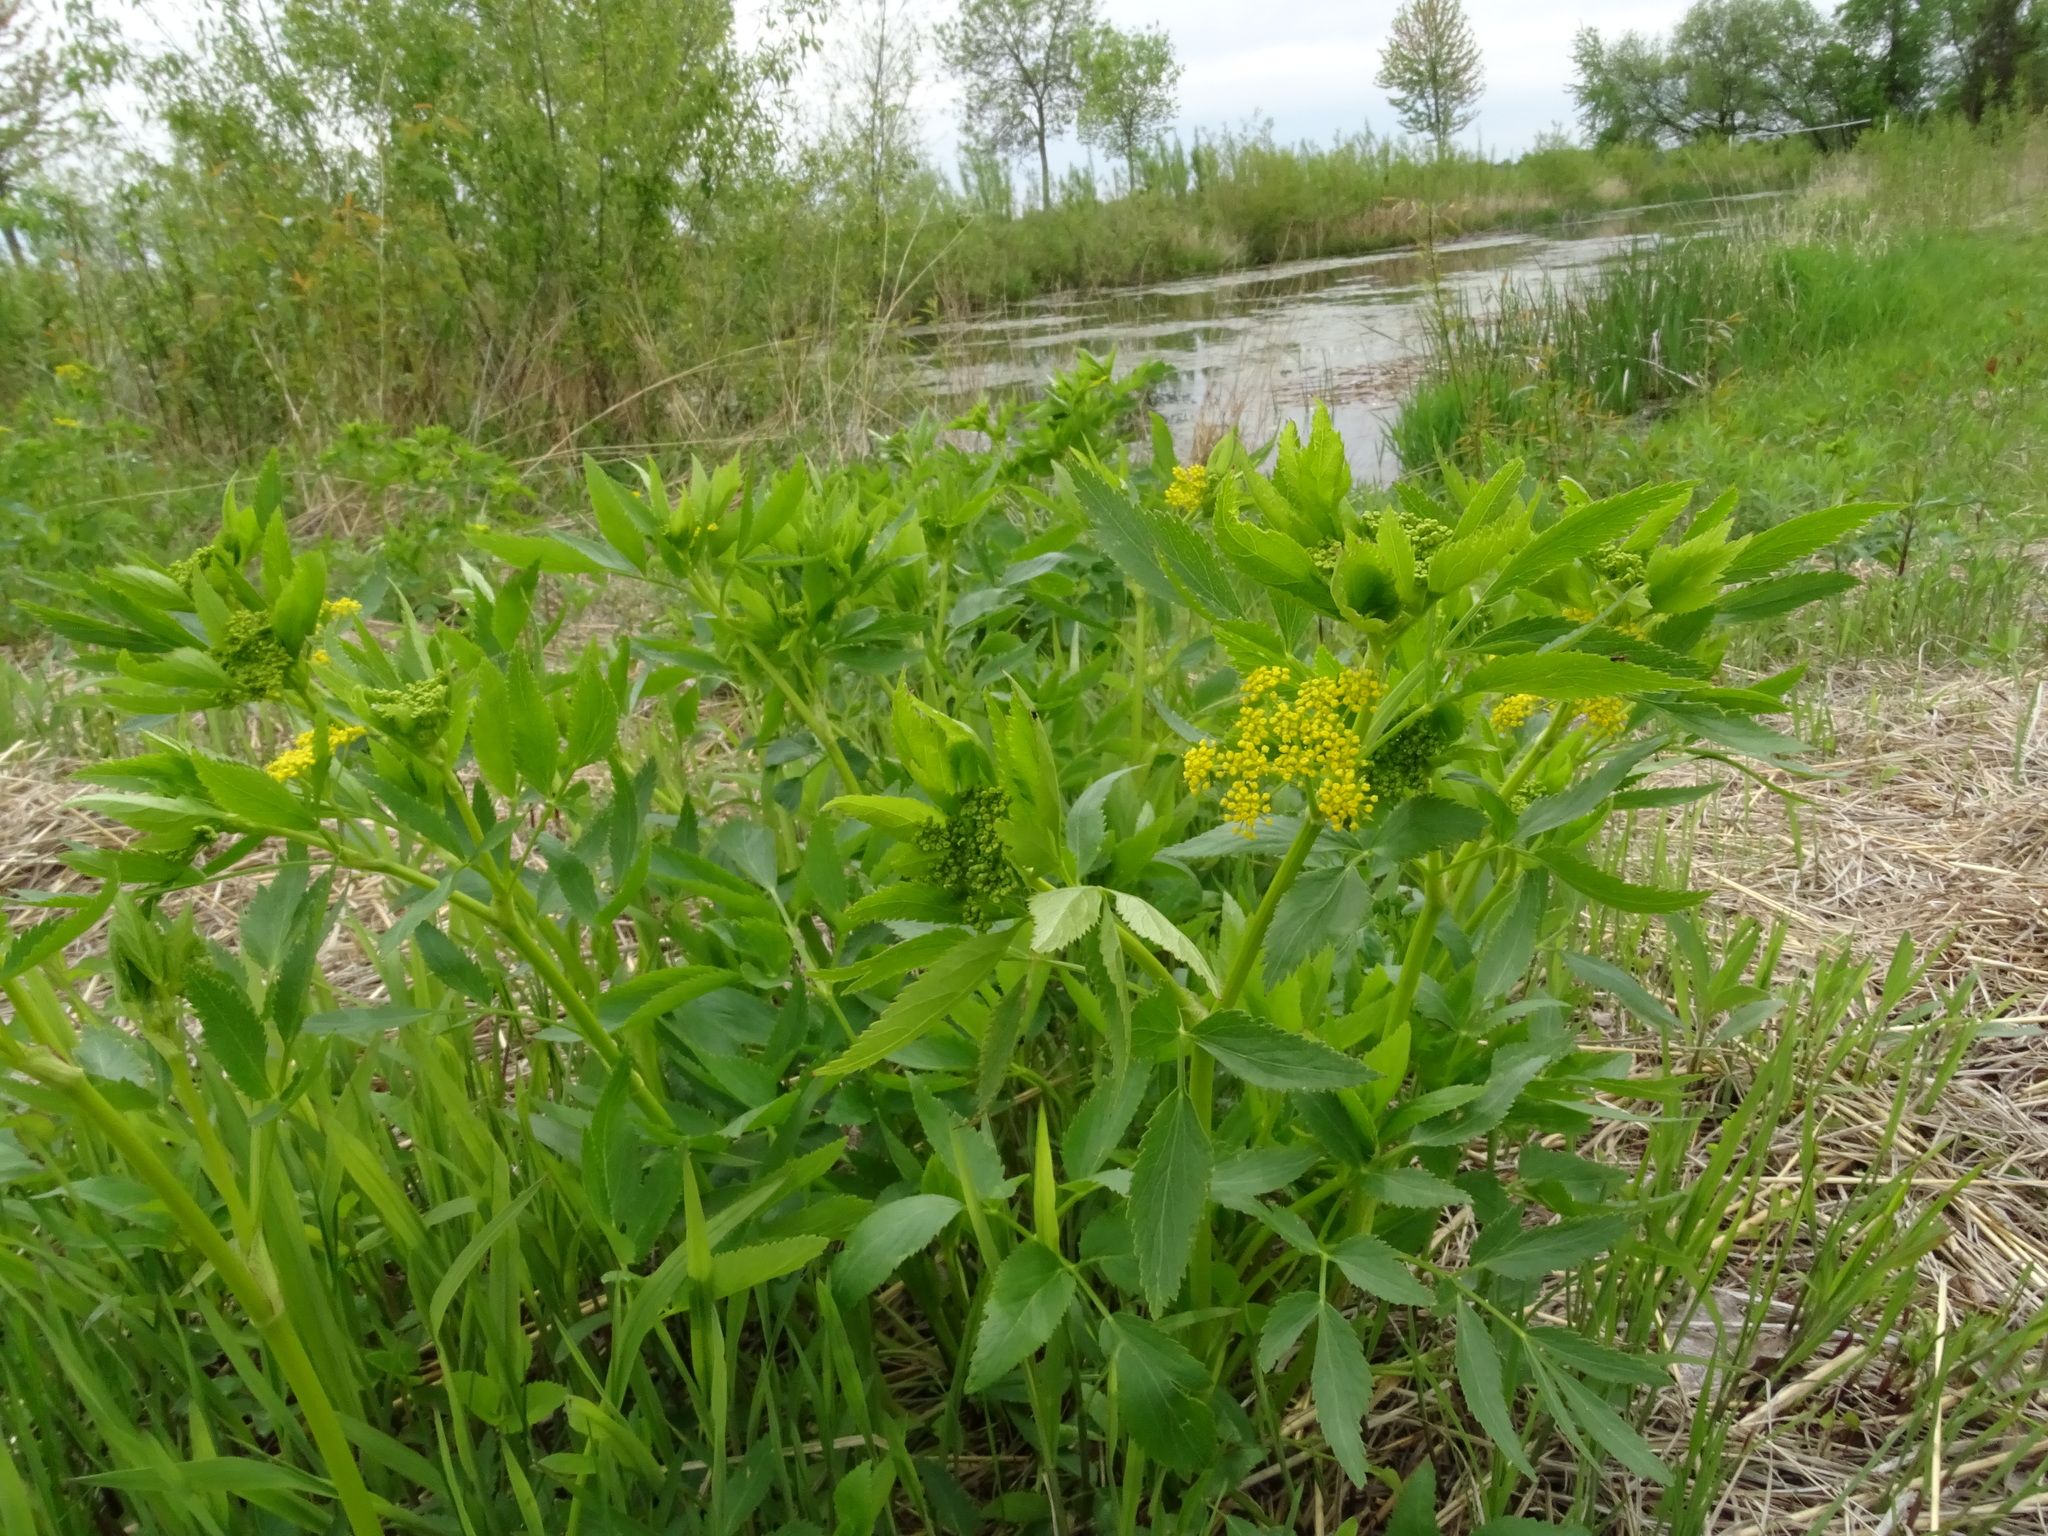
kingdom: Plantae
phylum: Tracheophyta
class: Magnoliopsida
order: Apiales
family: Apiaceae
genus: Zizia
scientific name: Zizia aurea
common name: Golden alexanders
